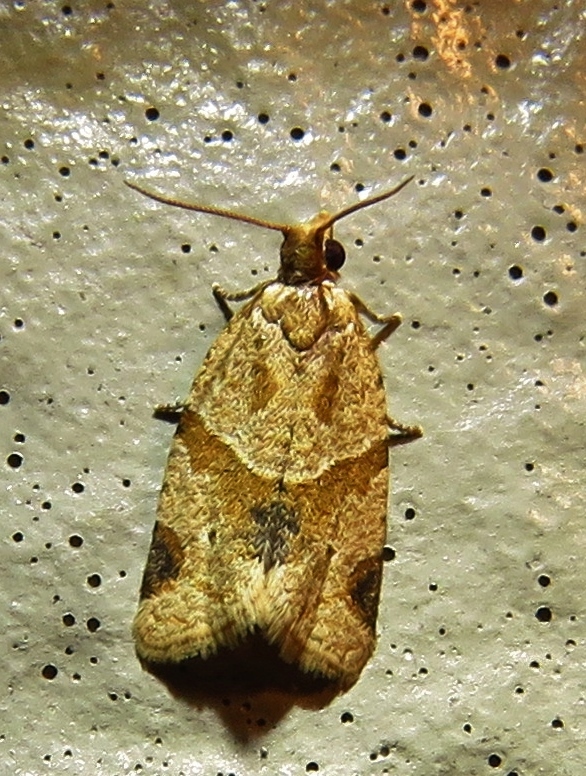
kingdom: Animalia
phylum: Arthropoda
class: Insecta
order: Lepidoptera
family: Tortricidae
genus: Clepsis
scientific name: Clepsis peritana
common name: Garden tortrix
